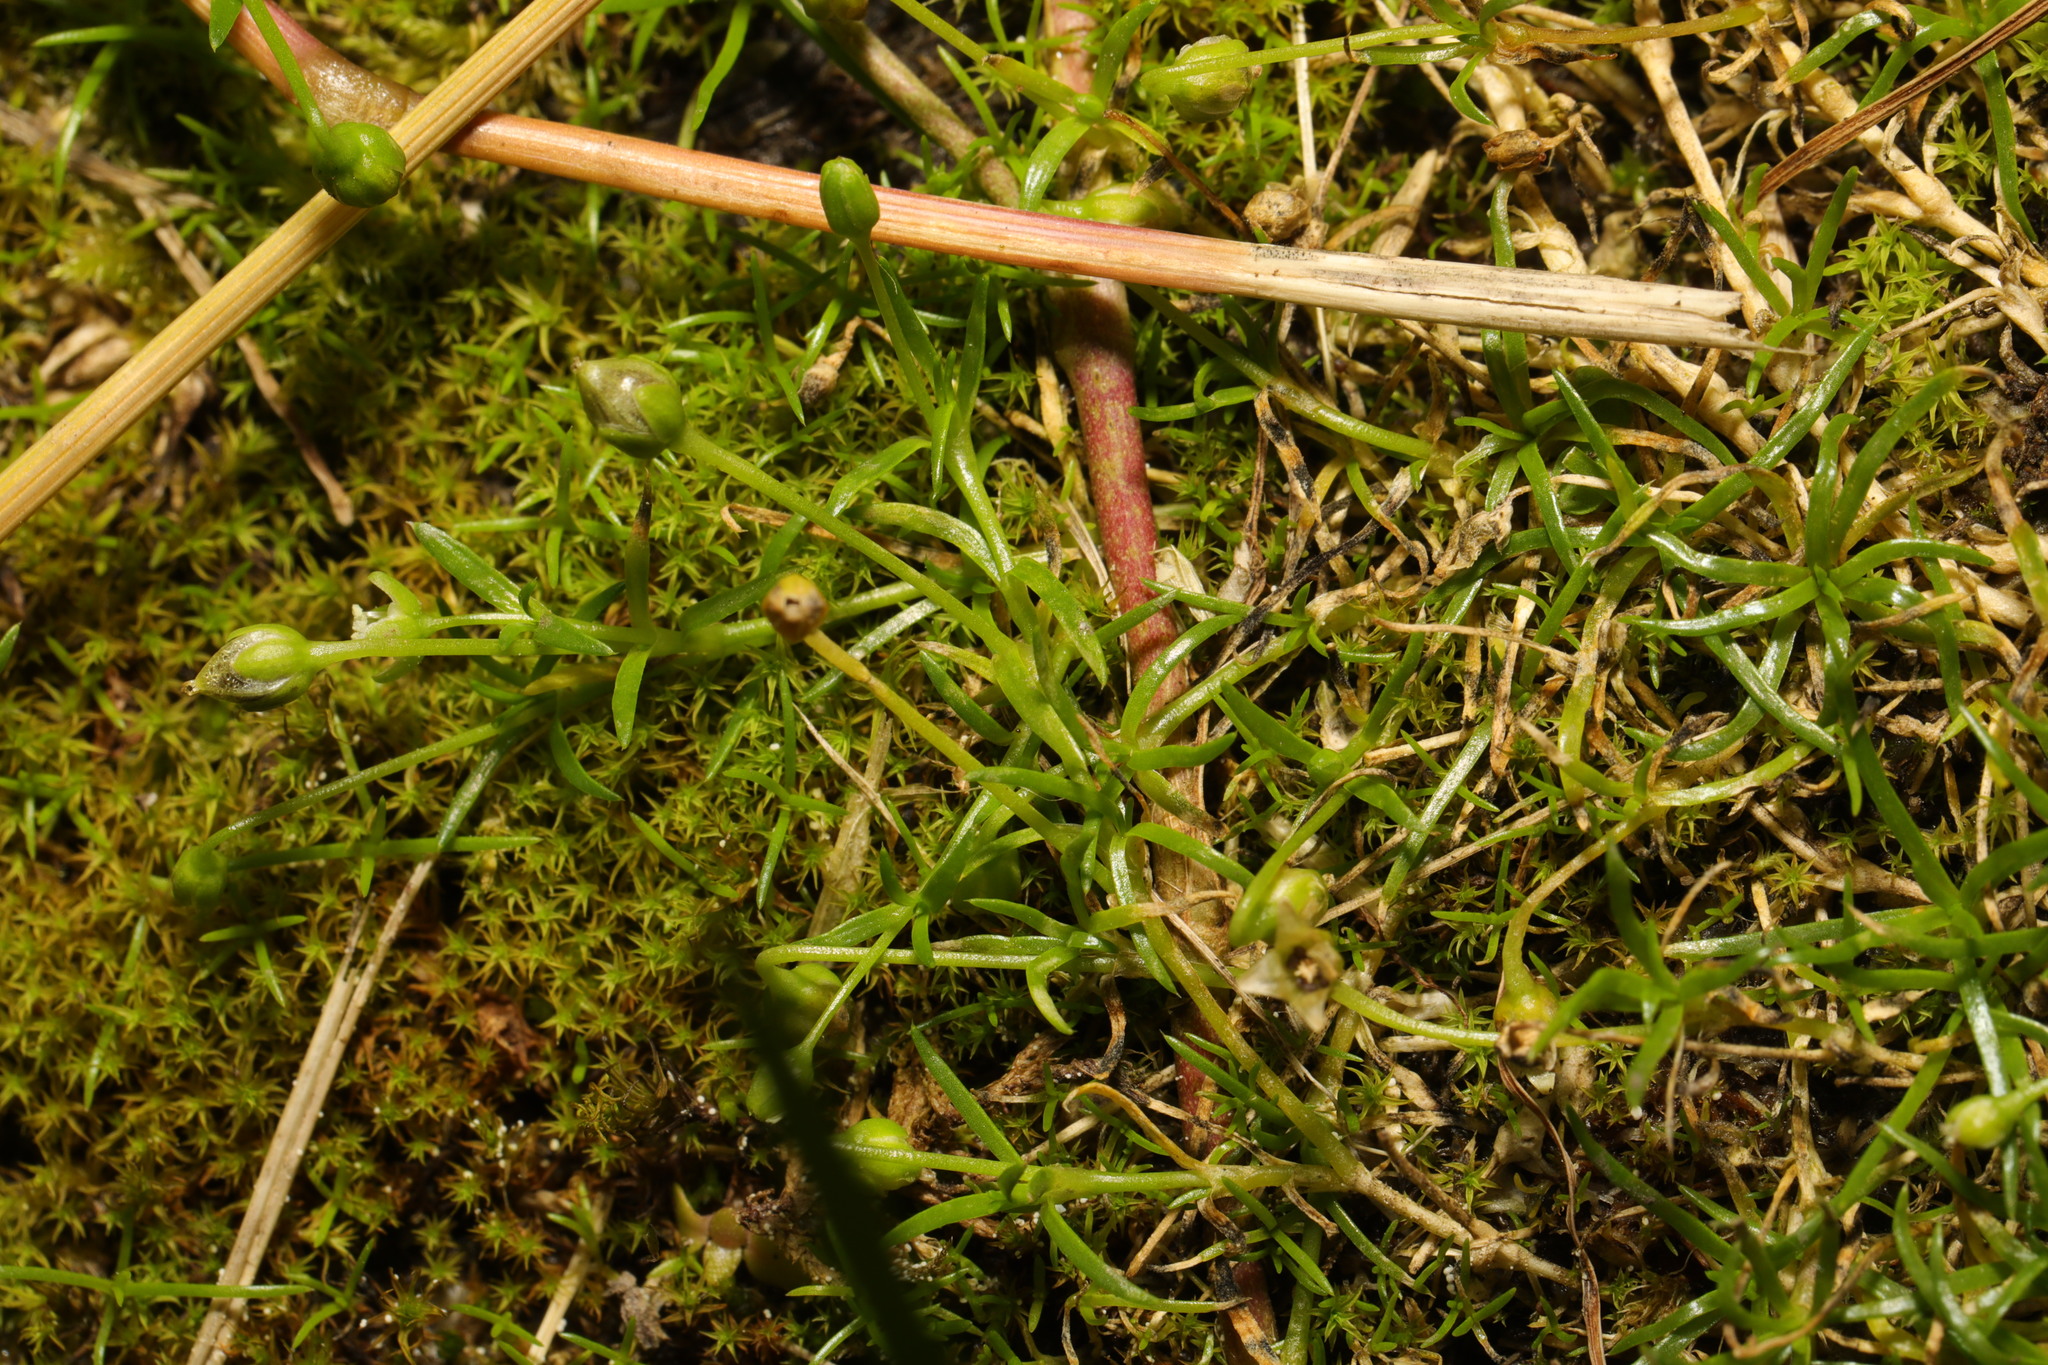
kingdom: Plantae
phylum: Tracheophyta
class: Magnoliopsida
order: Caryophyllales
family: Caryophyllaceae
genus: Sagina
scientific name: Sagina procumbens
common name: Procumbent pearlwort
